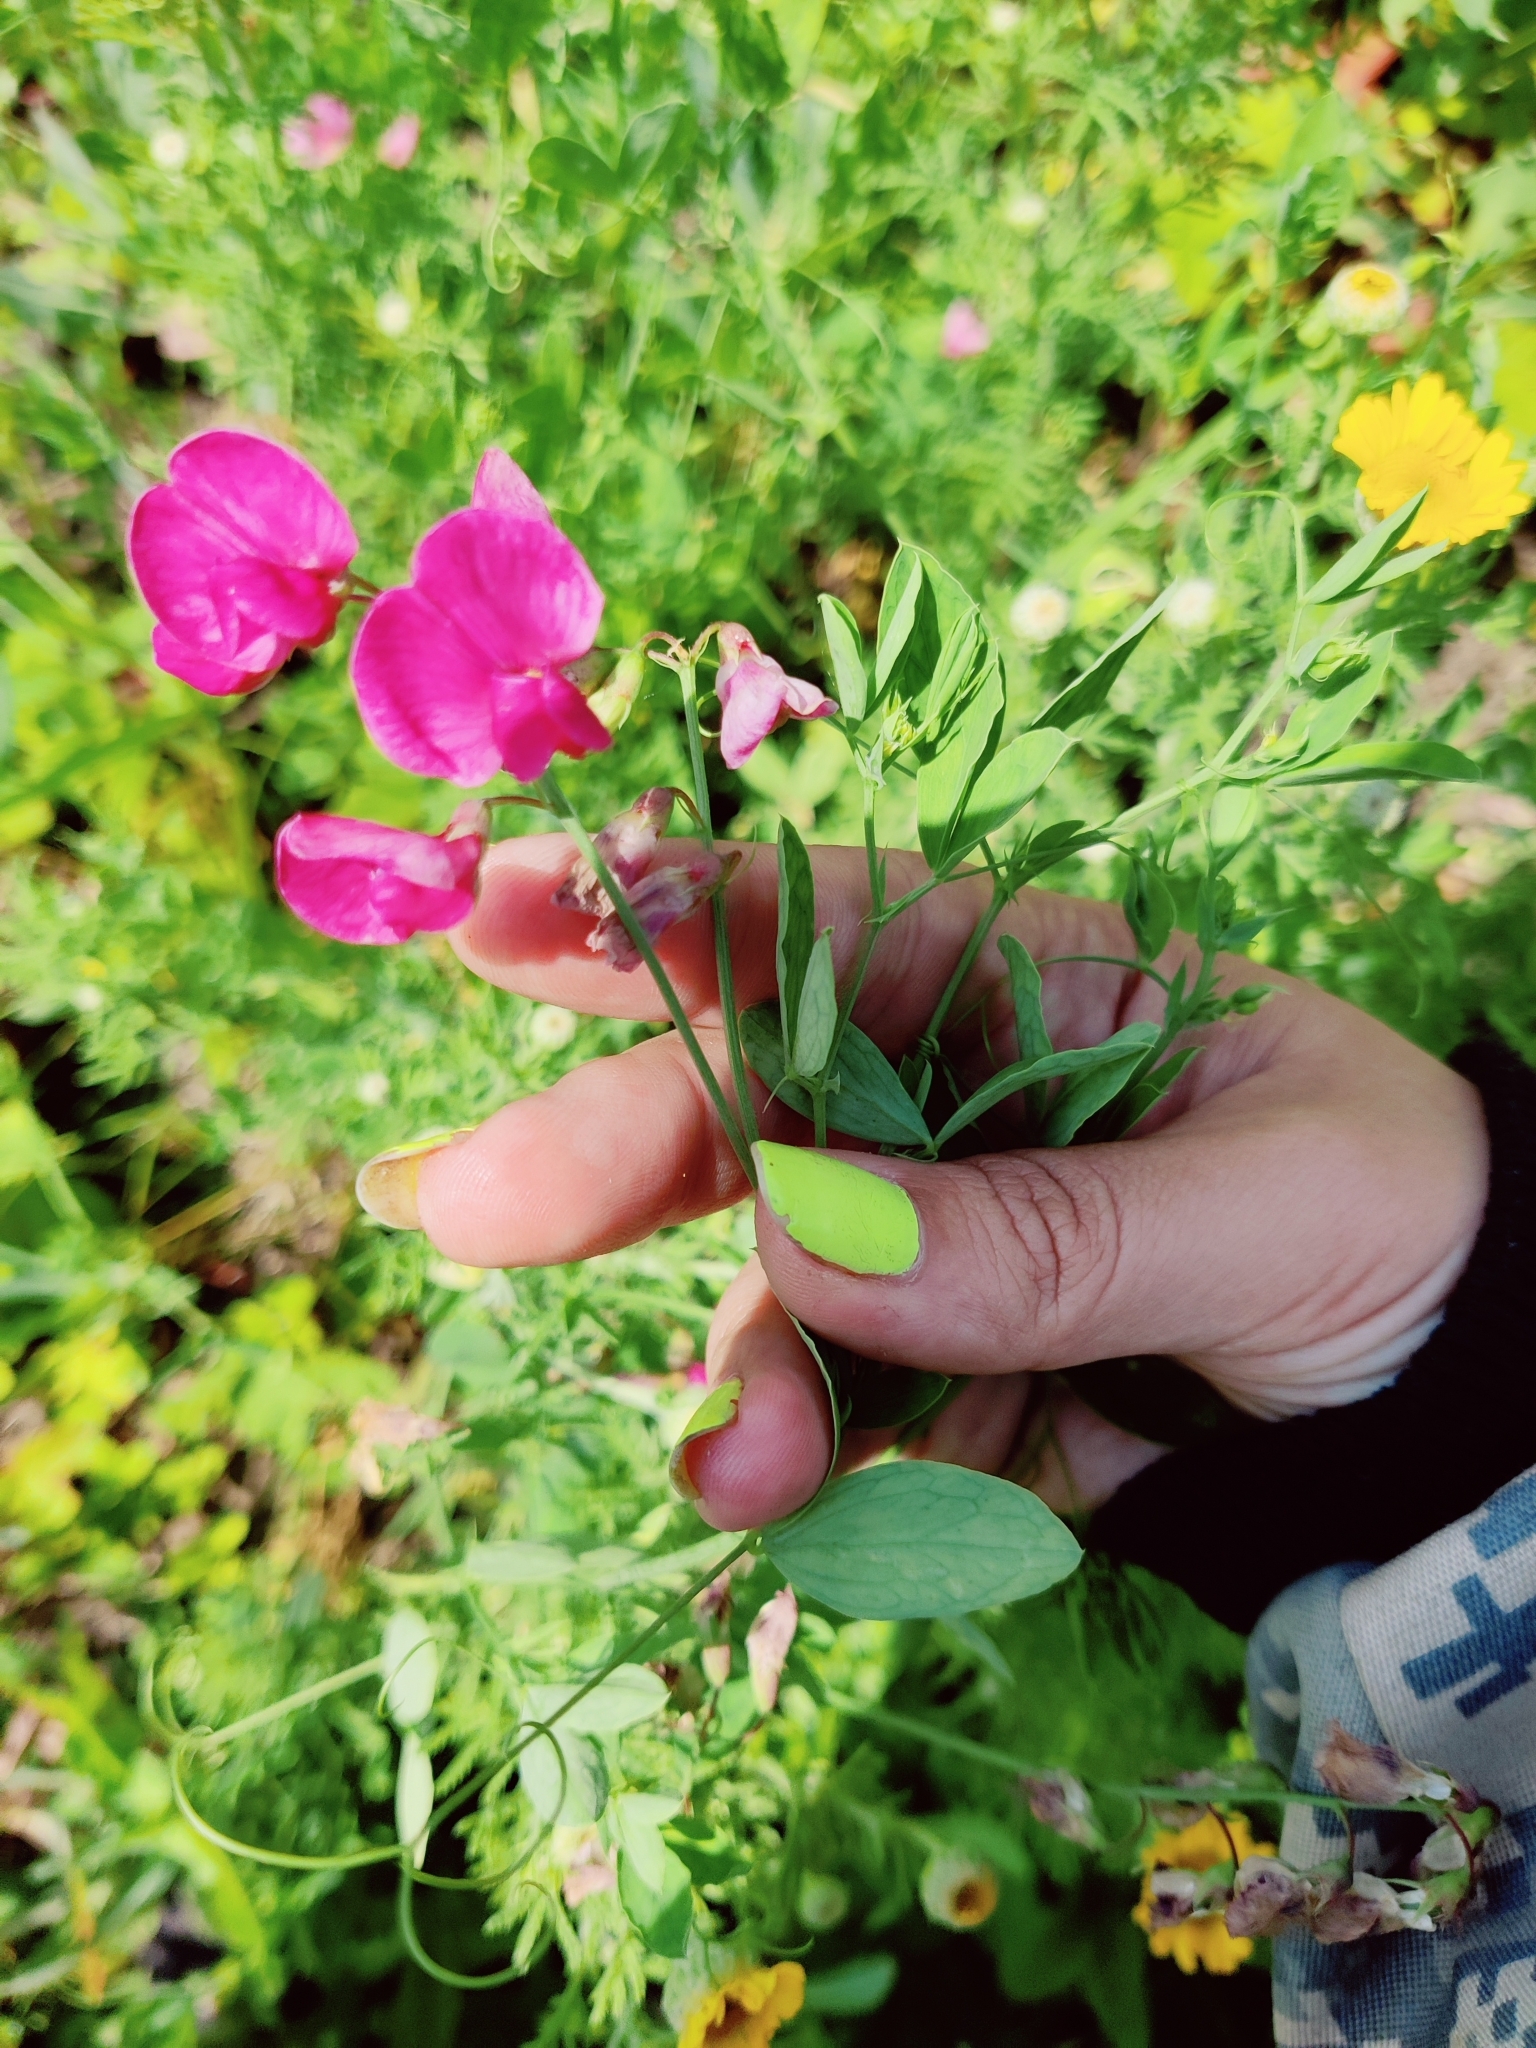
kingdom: Plantae
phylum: Tracheophyta
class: Magnoliopsida
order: Fabales
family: Fabaceae
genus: Lathyrus
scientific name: Lathyrus tuberosus
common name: Tuberous pea
